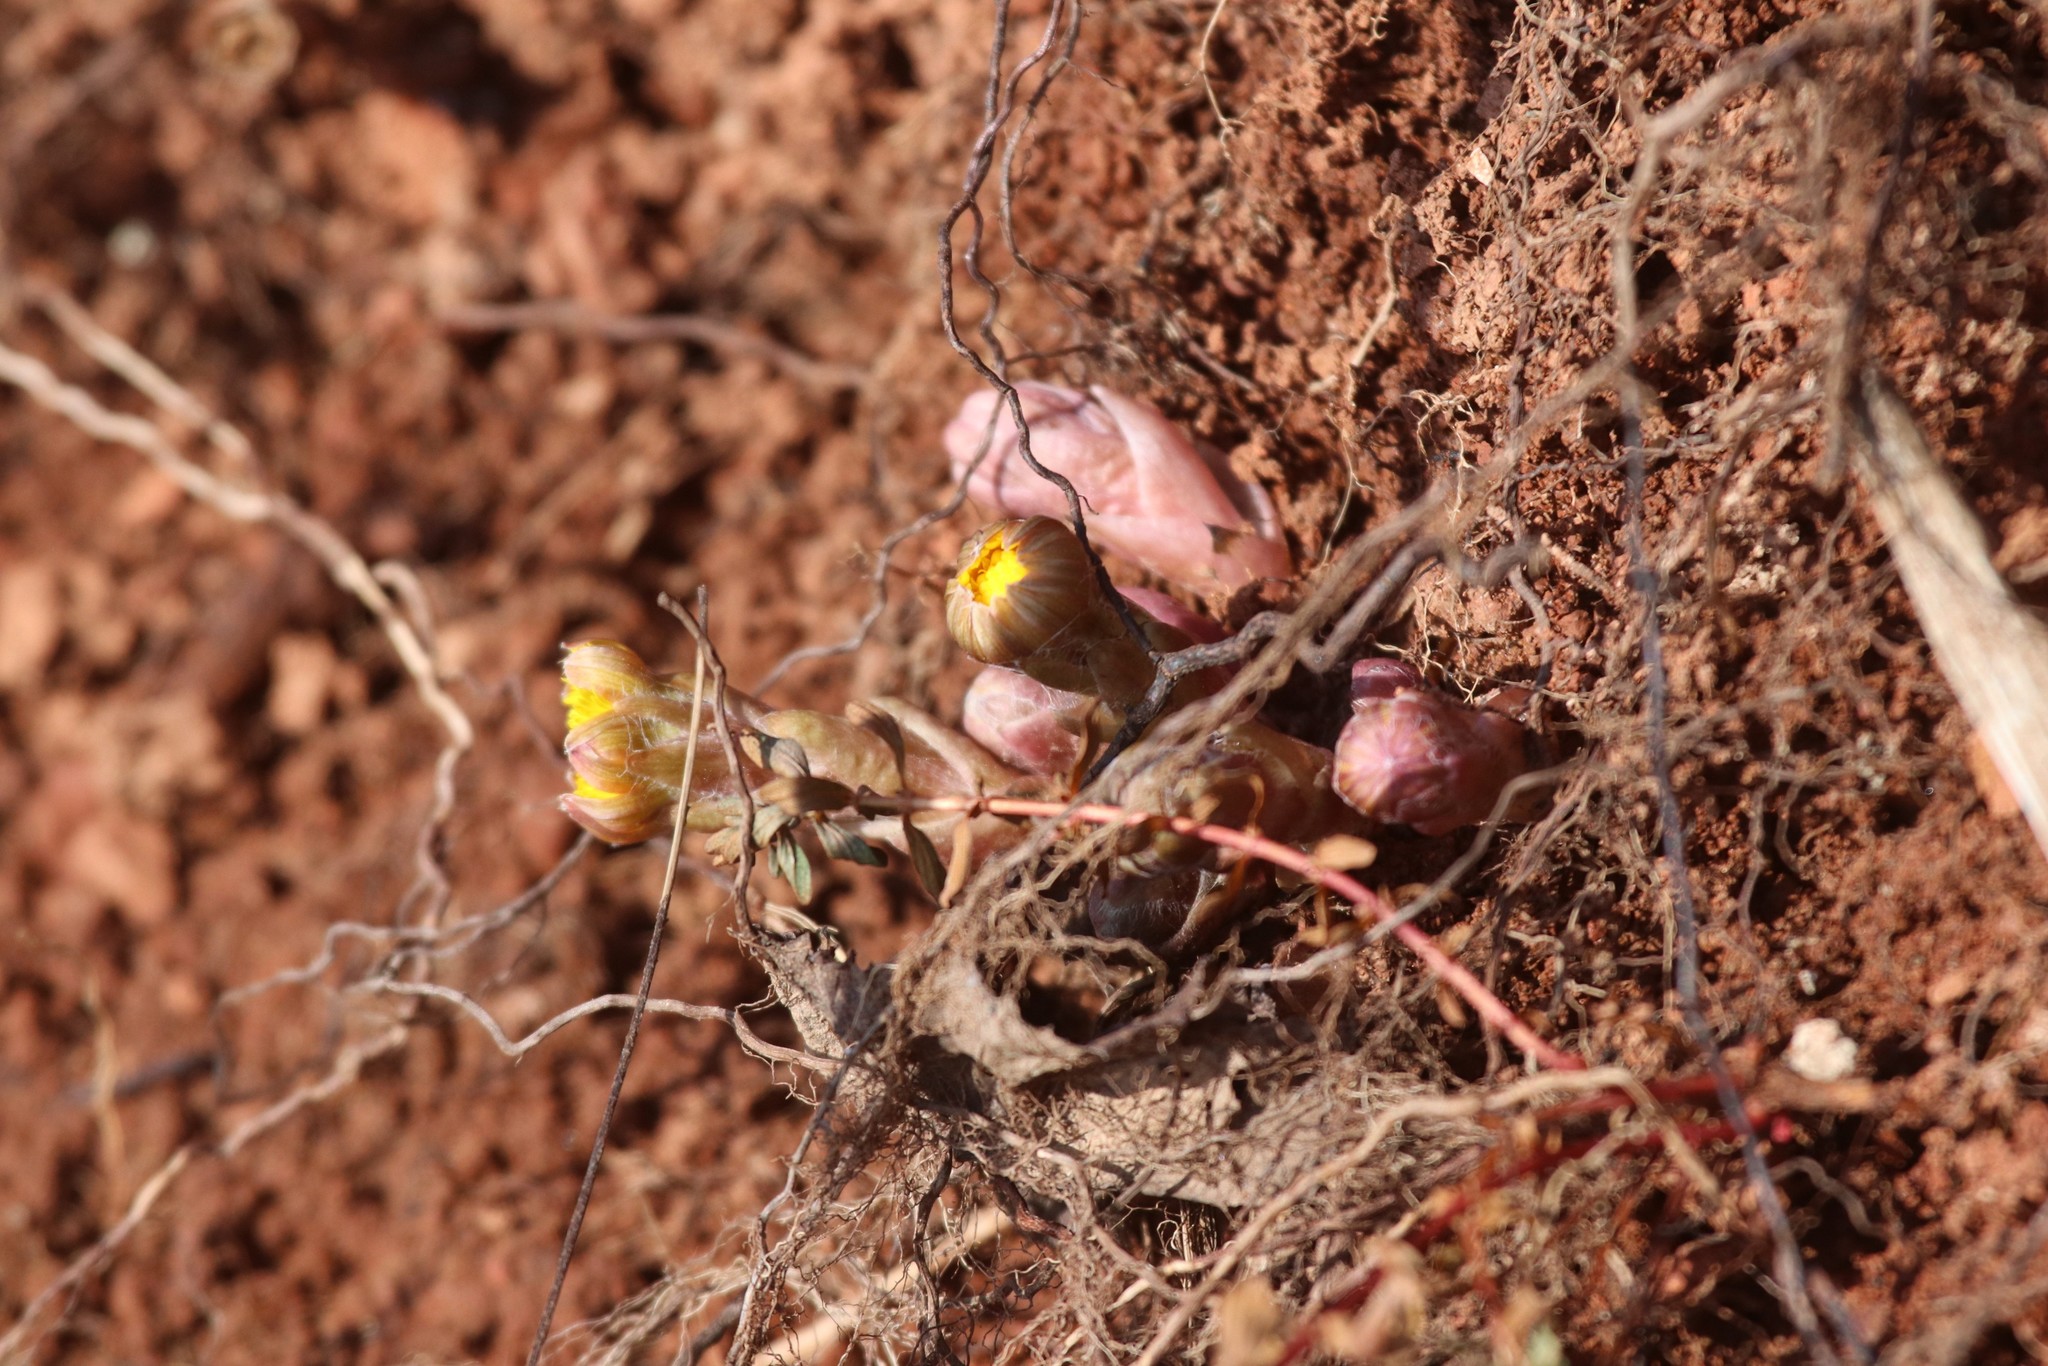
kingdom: Plantae
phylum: Tracheophyta
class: Magnoliopsida
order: Asterales
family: Asteraceae
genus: Tussilago
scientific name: Tussilago farfara
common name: Coltsfoot
